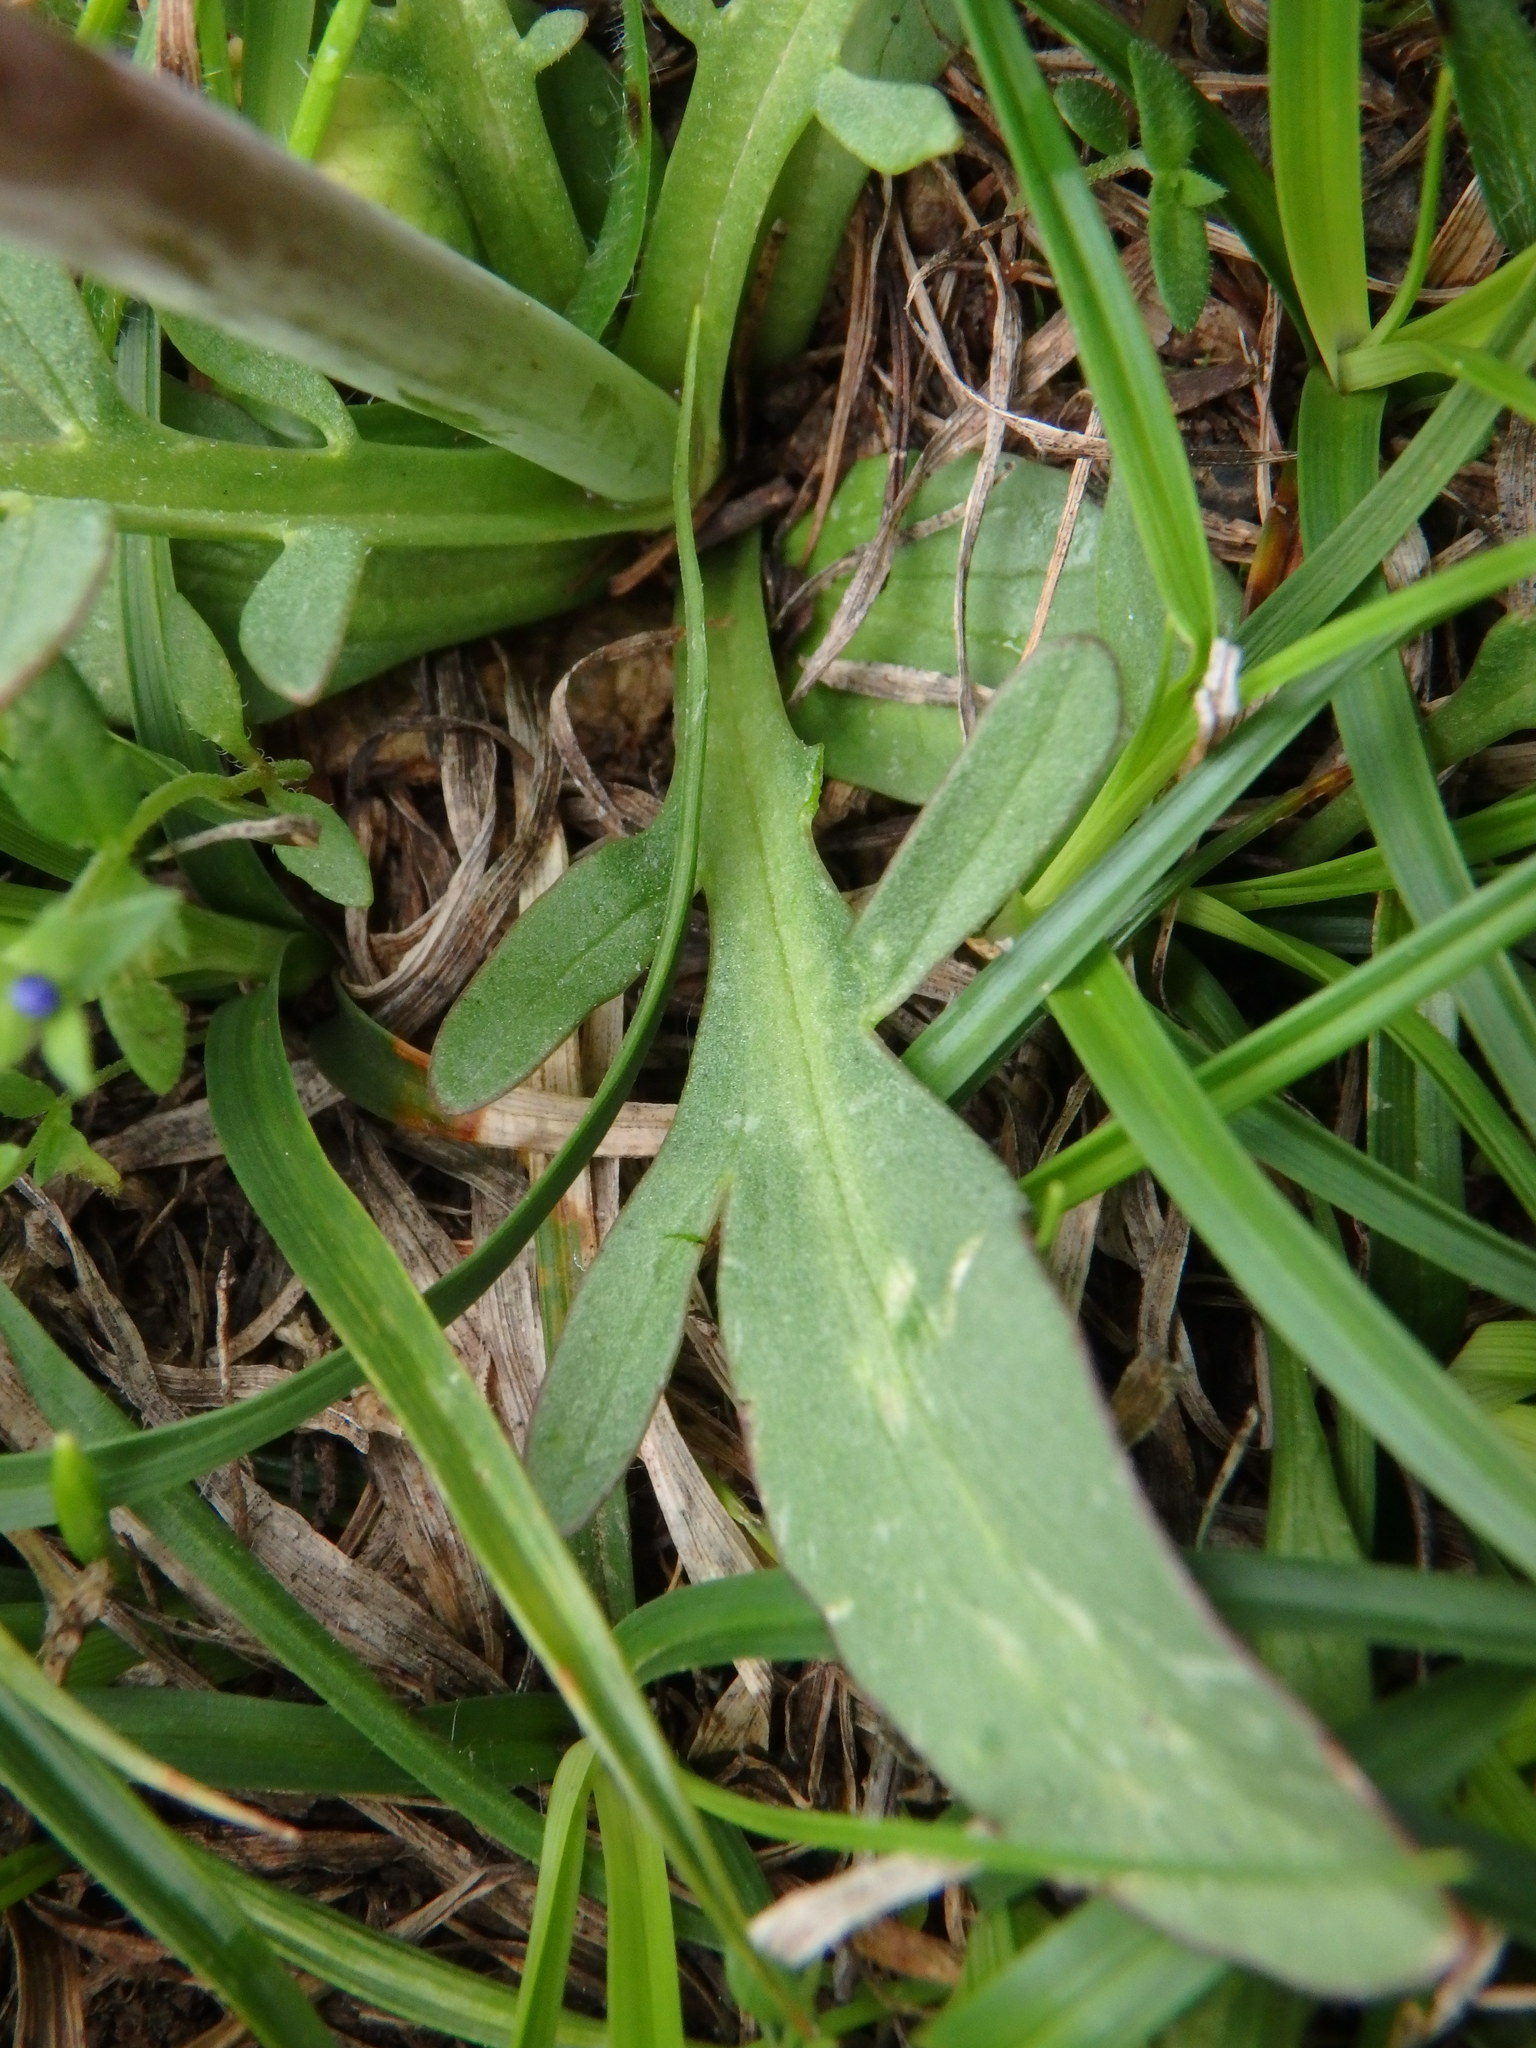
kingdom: Plantae
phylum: Tracheophyta
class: Magnoliopsida
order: Dipsacales
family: Caprifoliaceae
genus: Valeriana
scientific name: Valeriana tuberosa
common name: Tuberous valerian
